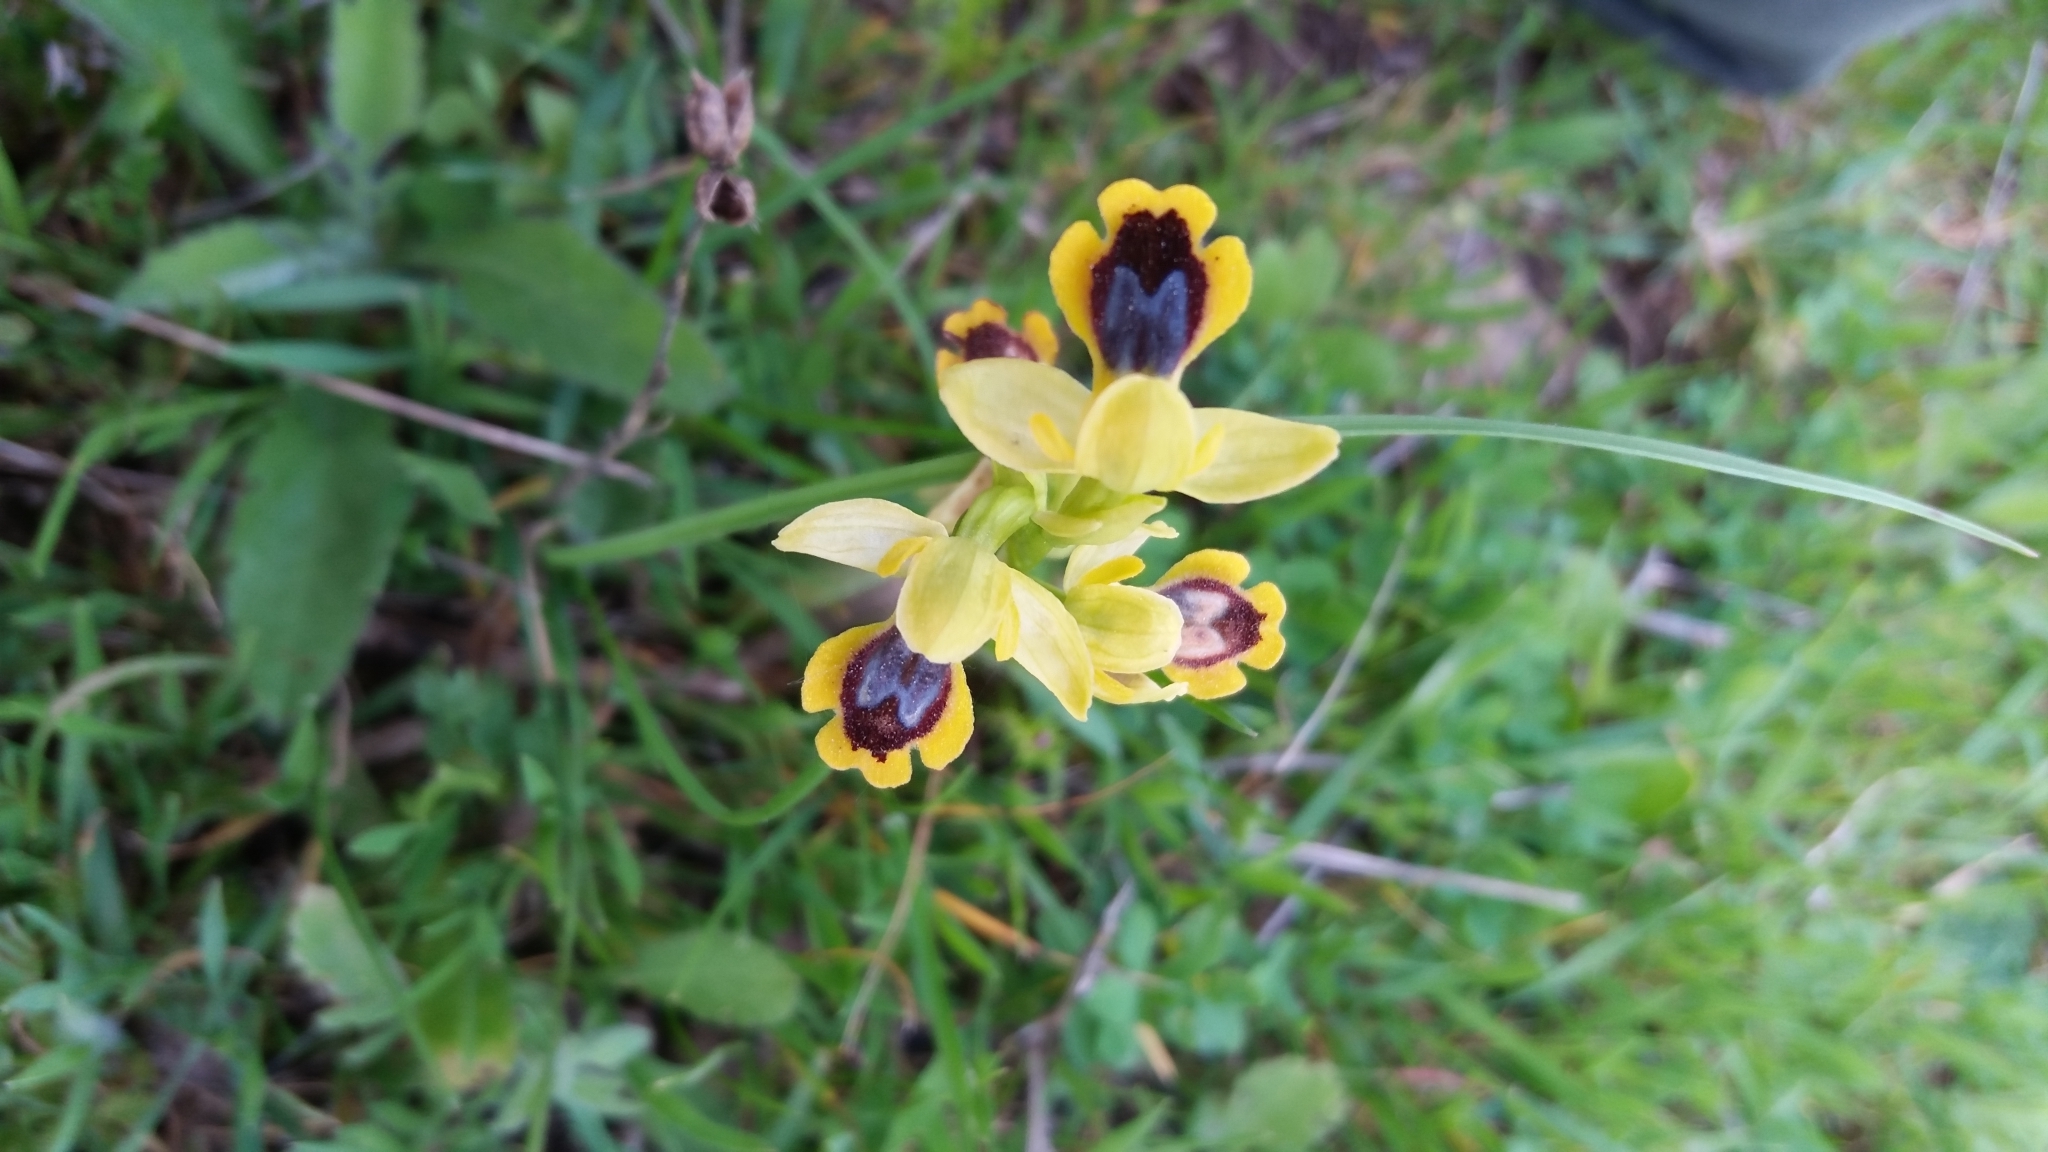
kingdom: Plantae
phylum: Tracheophyta
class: Liliopsida
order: Asparagales
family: Orchidaceae
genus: Ophrys
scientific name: Ophrys lutea
